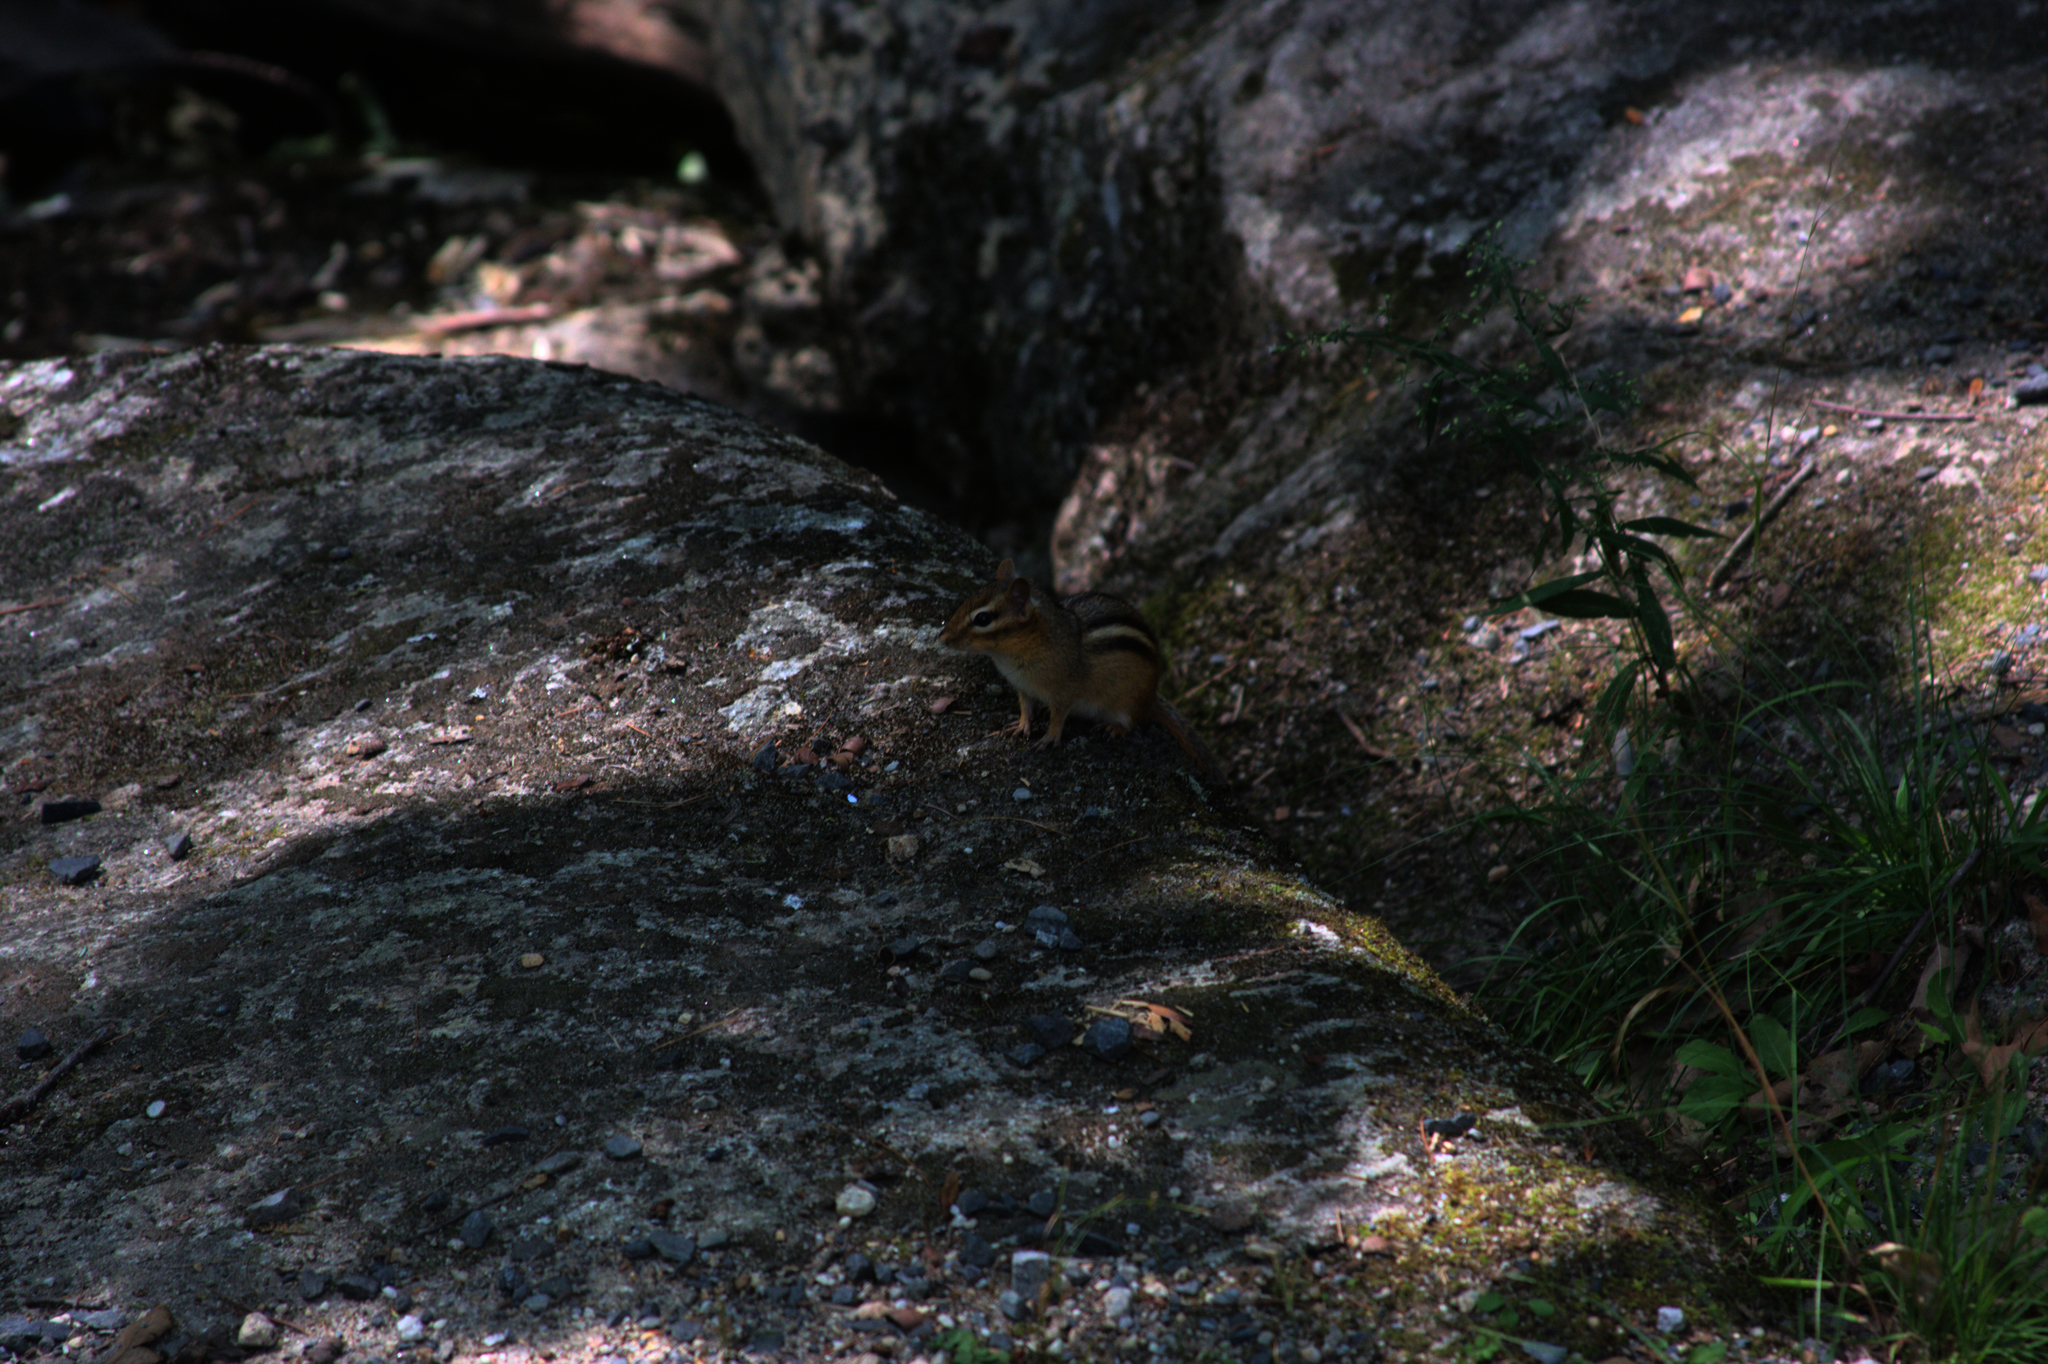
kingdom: Animalia
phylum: Chordata
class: Mammalia
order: Rodentia
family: Sciuridae
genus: Tamias
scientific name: Tamias striatus
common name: Eastern chipmunk
